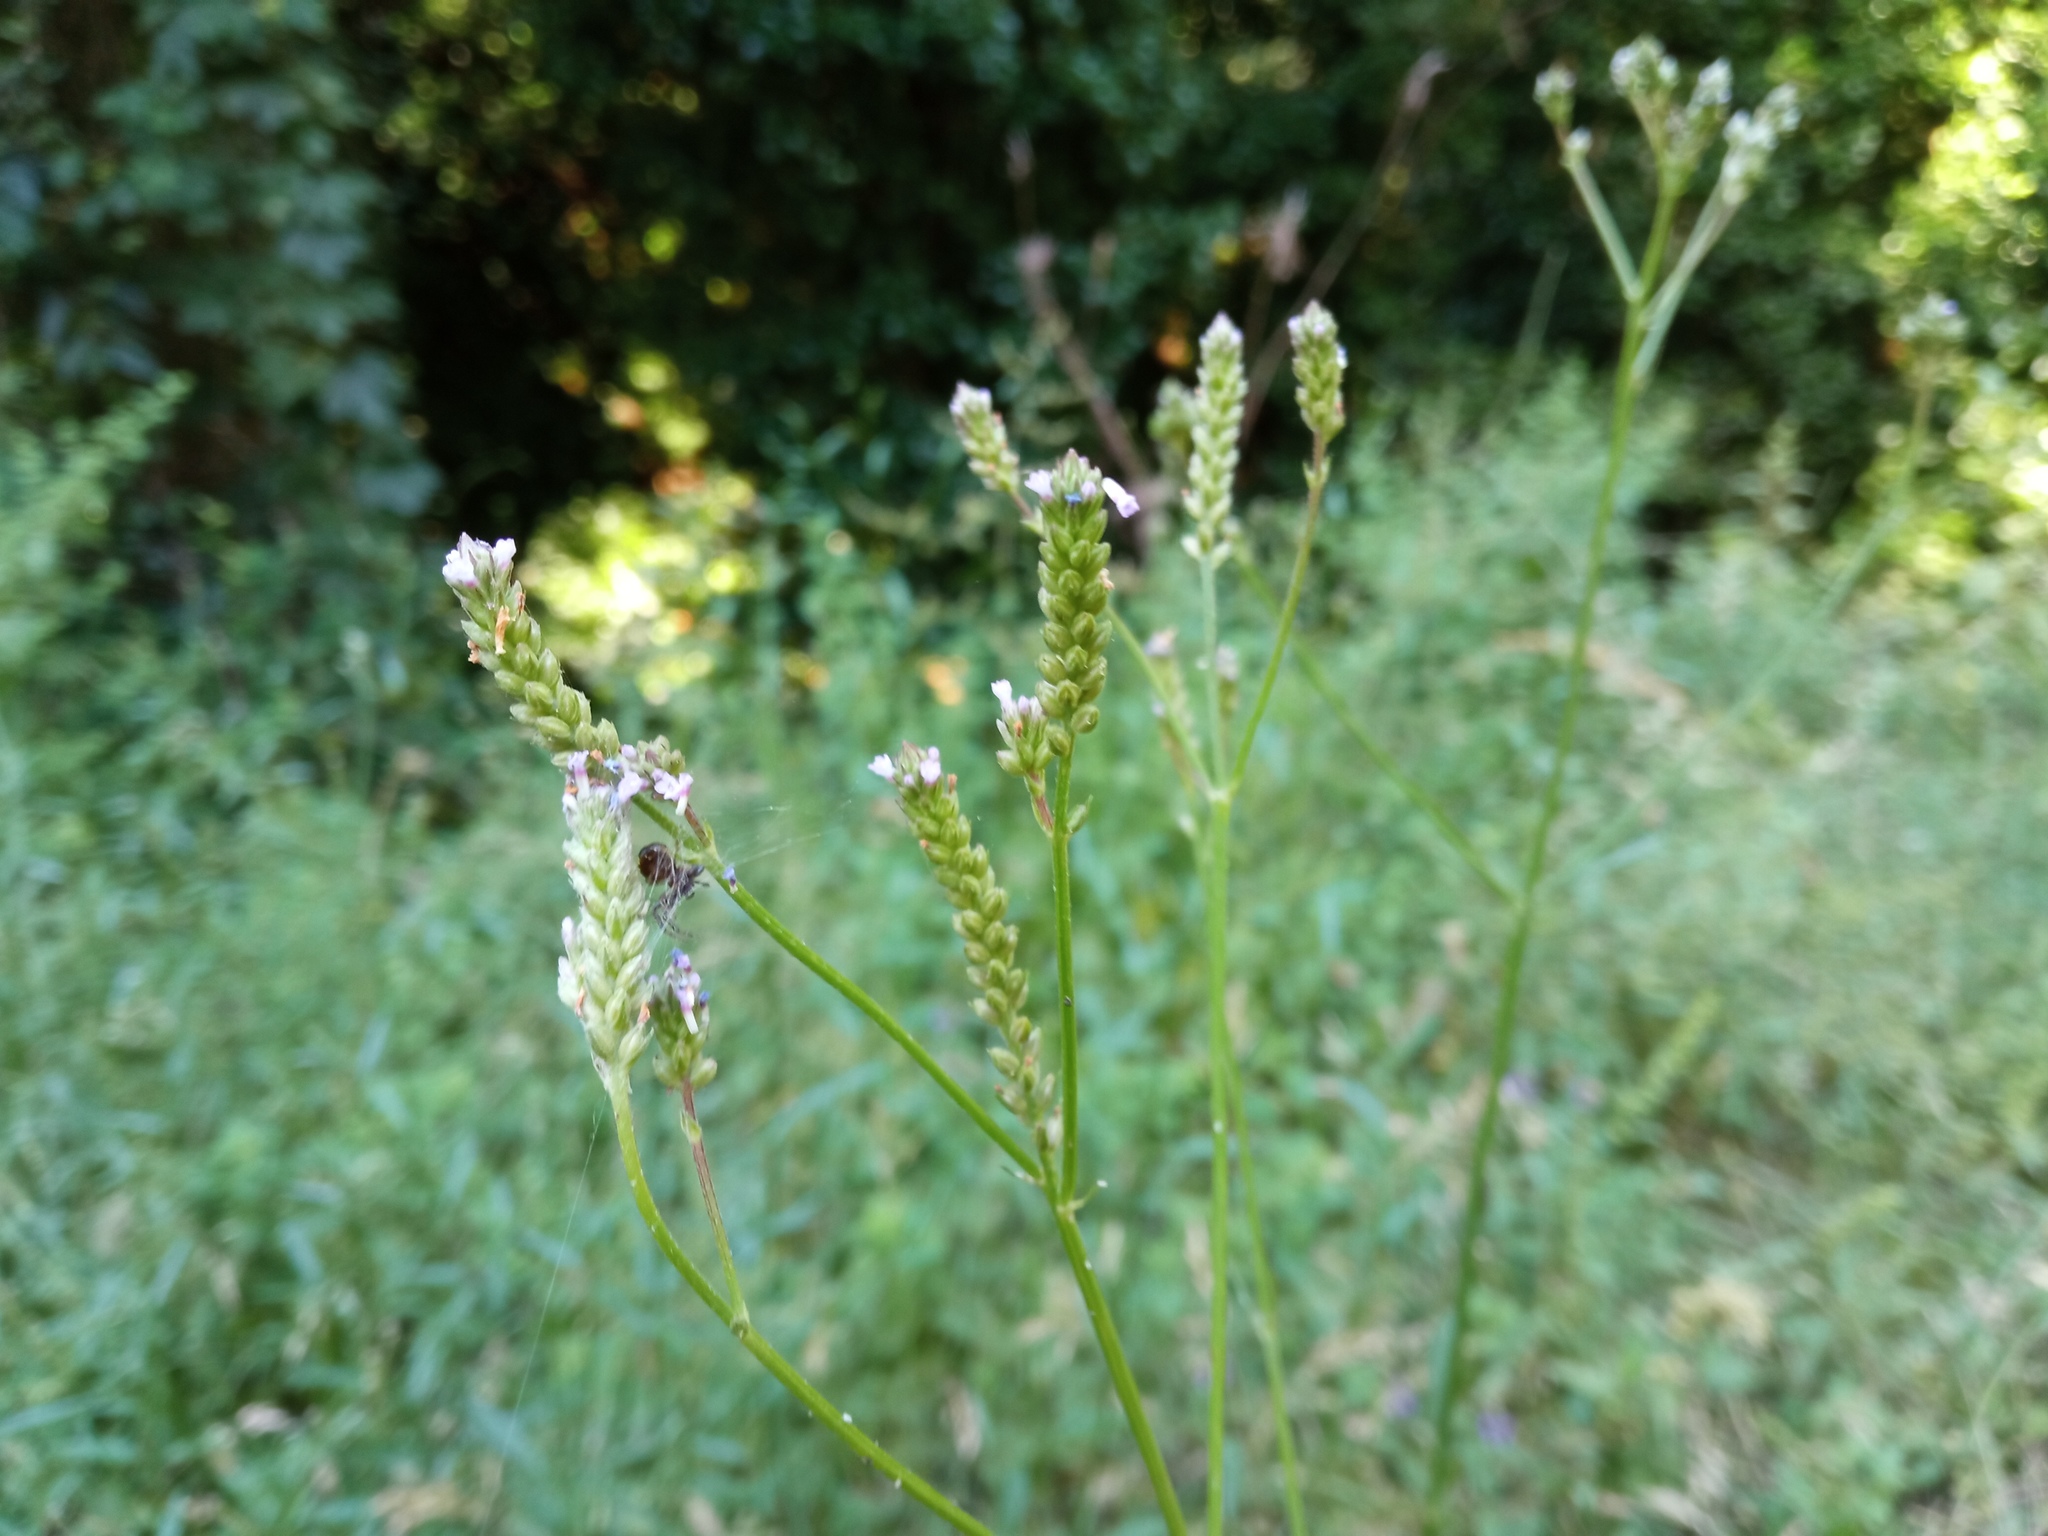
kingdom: Plantae
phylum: Tracheophyta
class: Magnoliopsida
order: Lamiales
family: Verbenaceae
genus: Verbena
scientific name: Verbena brasiliensis
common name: Brazilian vervain
